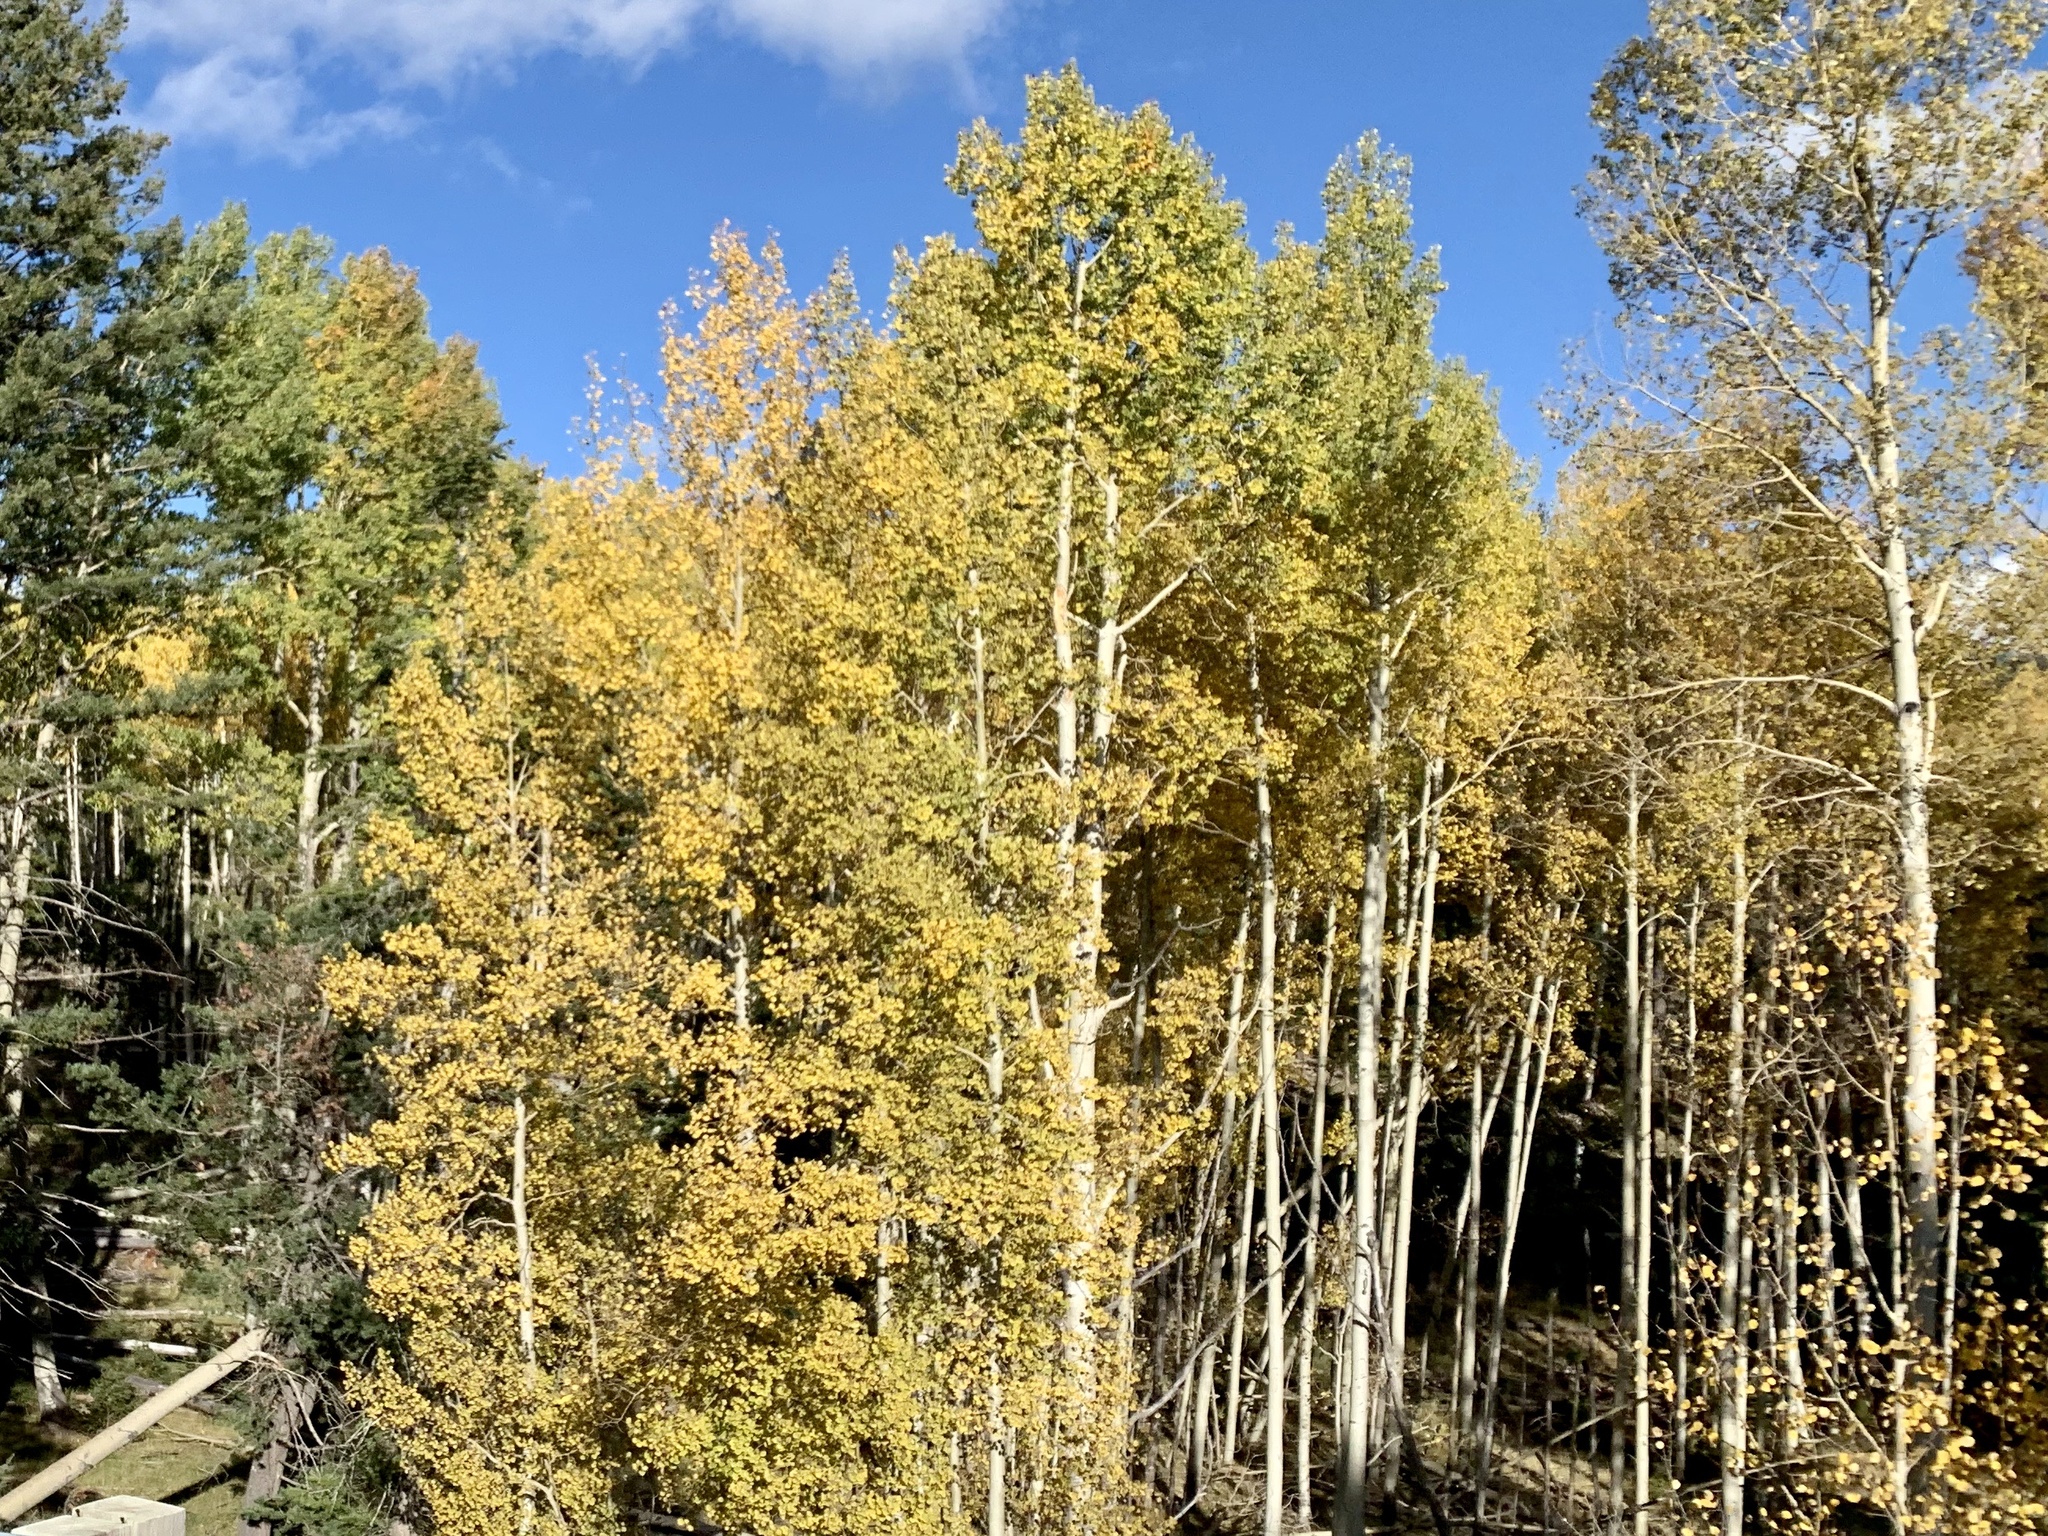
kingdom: Plantae
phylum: Tracheophyta
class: Magnoliopsida
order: Malpighiales
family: Salicaceae
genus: Populus
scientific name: Populus tremuloides
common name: Quaking aspen
